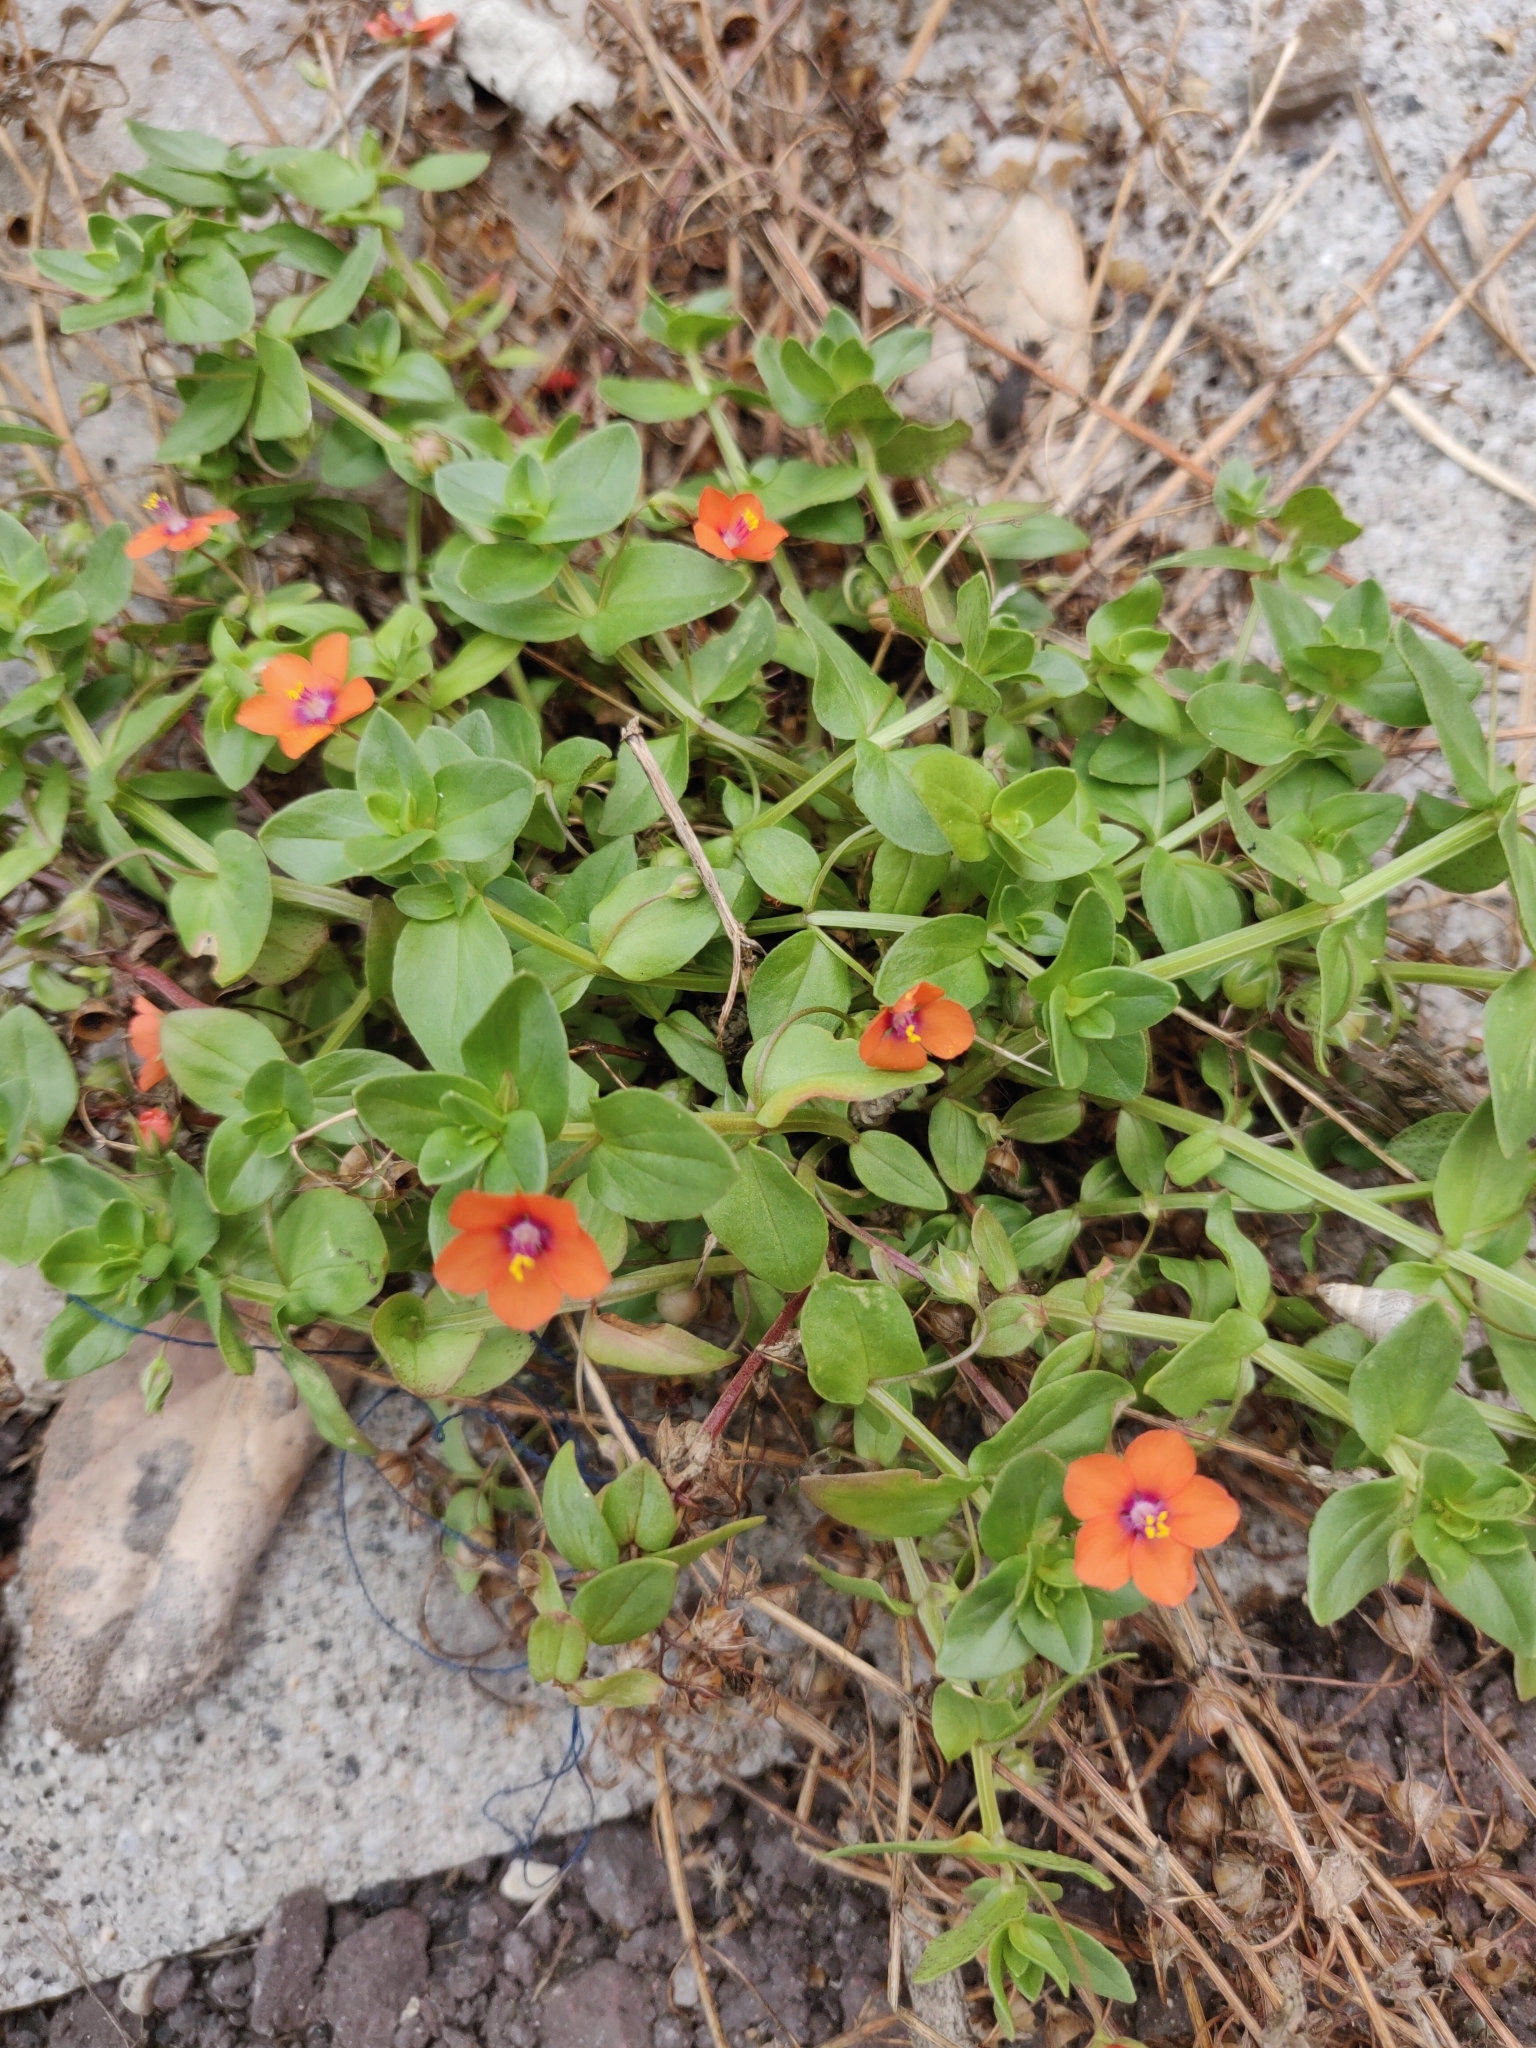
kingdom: Plantae
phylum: Tracheophyta
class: Magnoliopsida
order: Ericales
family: Primulaceae
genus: Lysimachia
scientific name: Lysimachia arvensis
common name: Scarlet pimpernel
